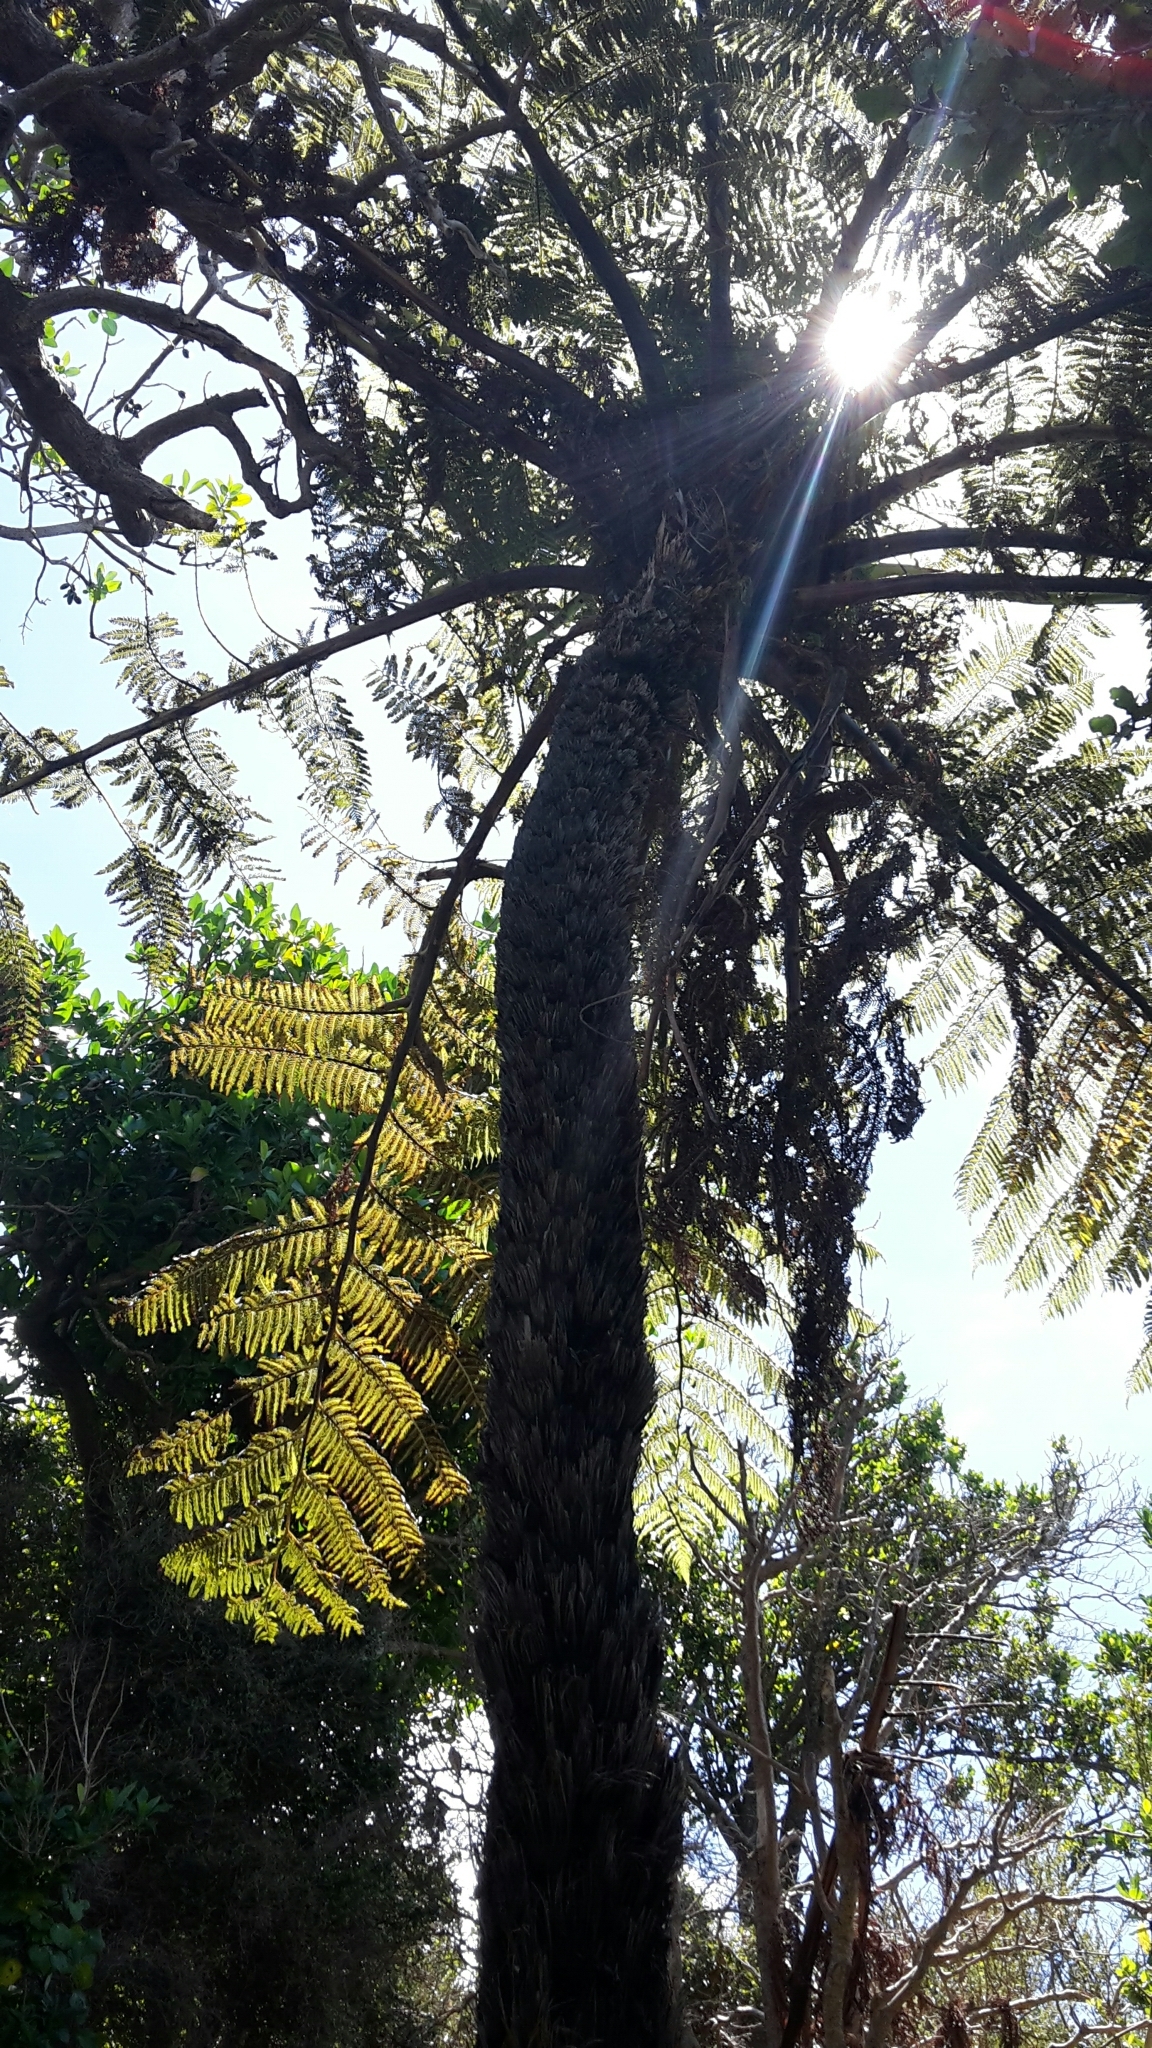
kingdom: Plantae
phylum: Tracheophyta
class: Polypodiopsida
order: Cyatheales
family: Cyatheaceae
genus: Sphaeropteris
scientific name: Sphaeropteris medullaris
